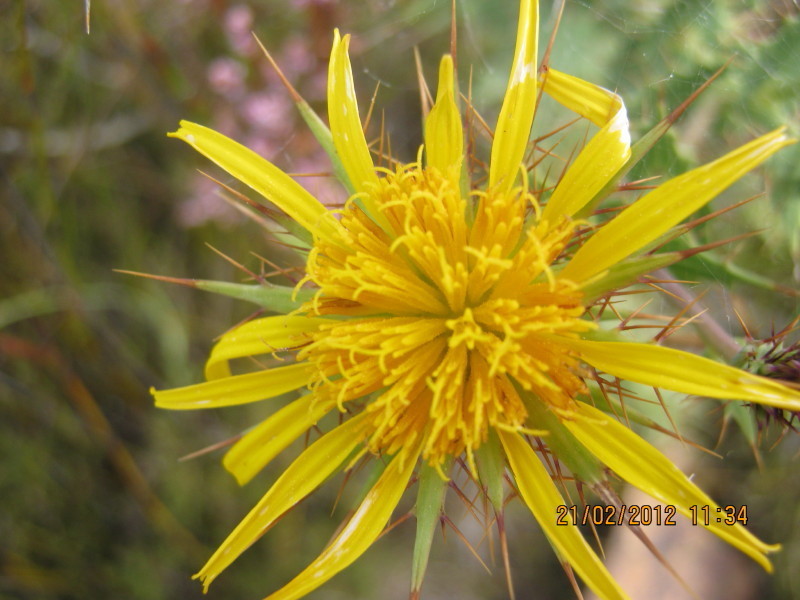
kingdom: Plantae
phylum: Tracheophyta
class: Magnoliopsida
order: Asterales
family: Asteraceae
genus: Berkheya
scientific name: Berkheya cruciata
